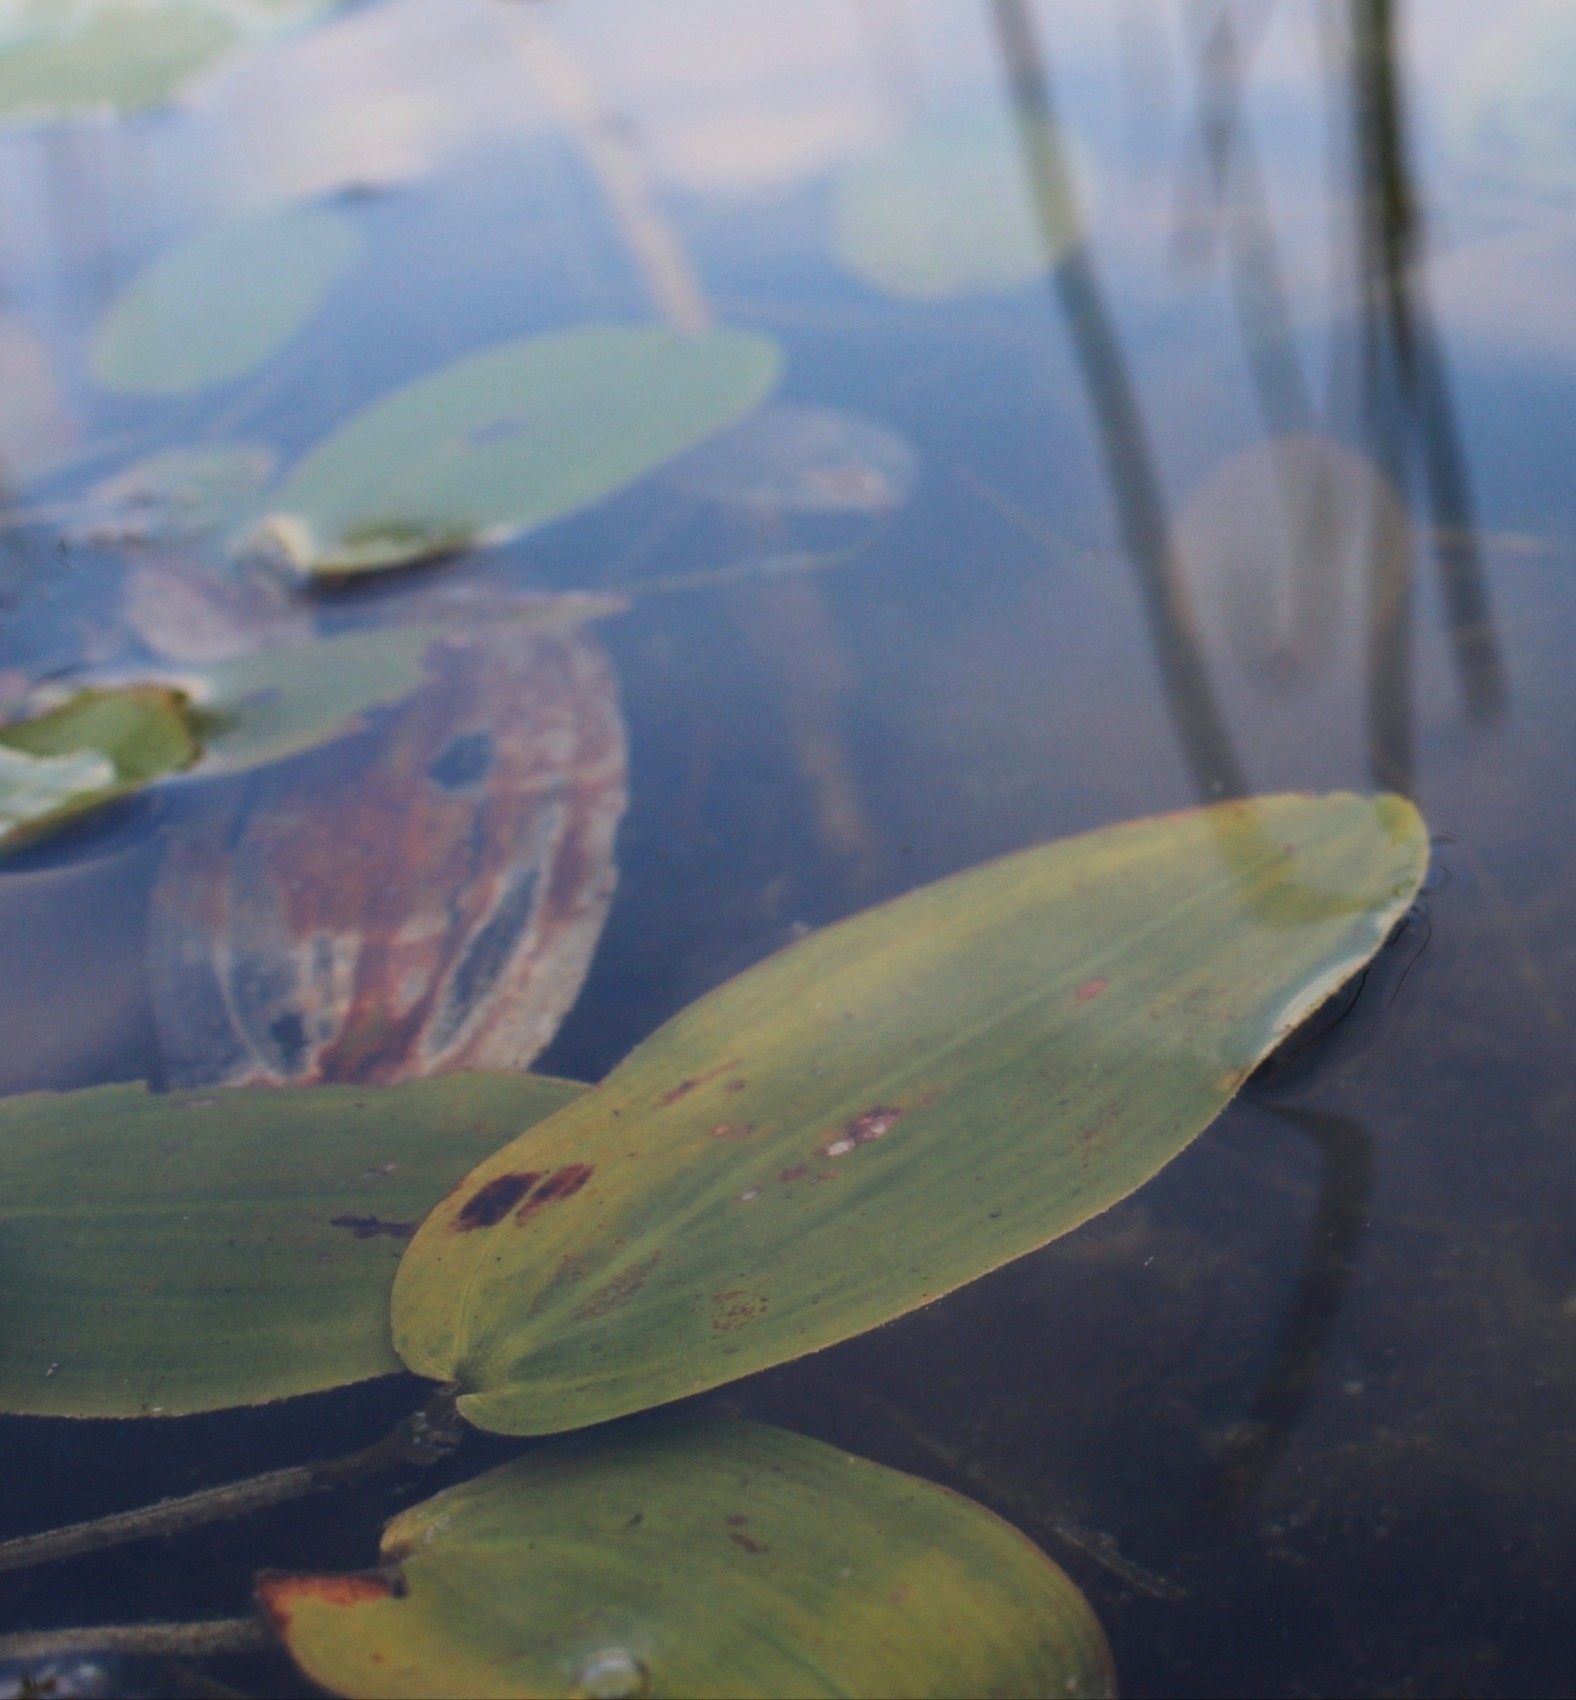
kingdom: Plantae
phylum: Tracheophyta
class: Liliopsida
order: Alismatales
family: Potamogetonaceae
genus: Potamogeton
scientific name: Potamogeton natans
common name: Broad-leaved pondweed
